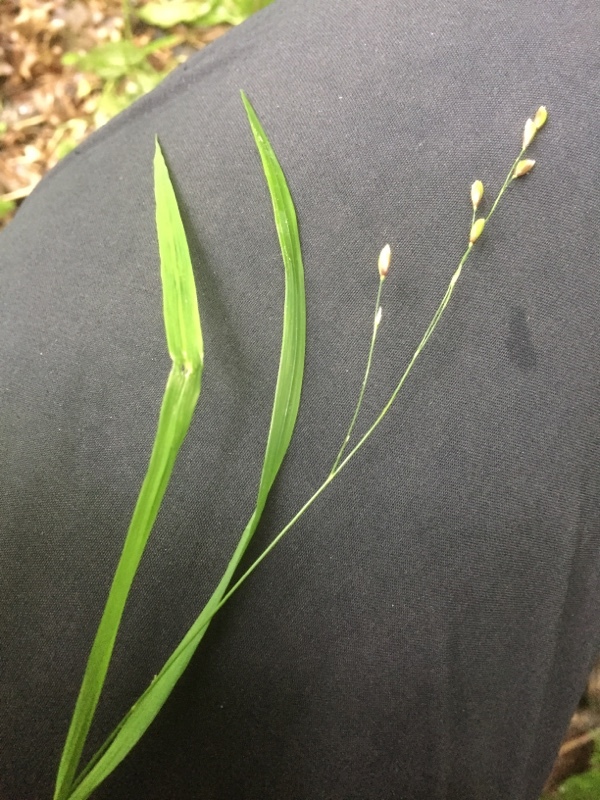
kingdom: Plantae
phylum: Tracheophyta
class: Liliopsida
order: Poales
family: Poaceae
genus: Melica
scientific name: Melica uniflora
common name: Wood melick
